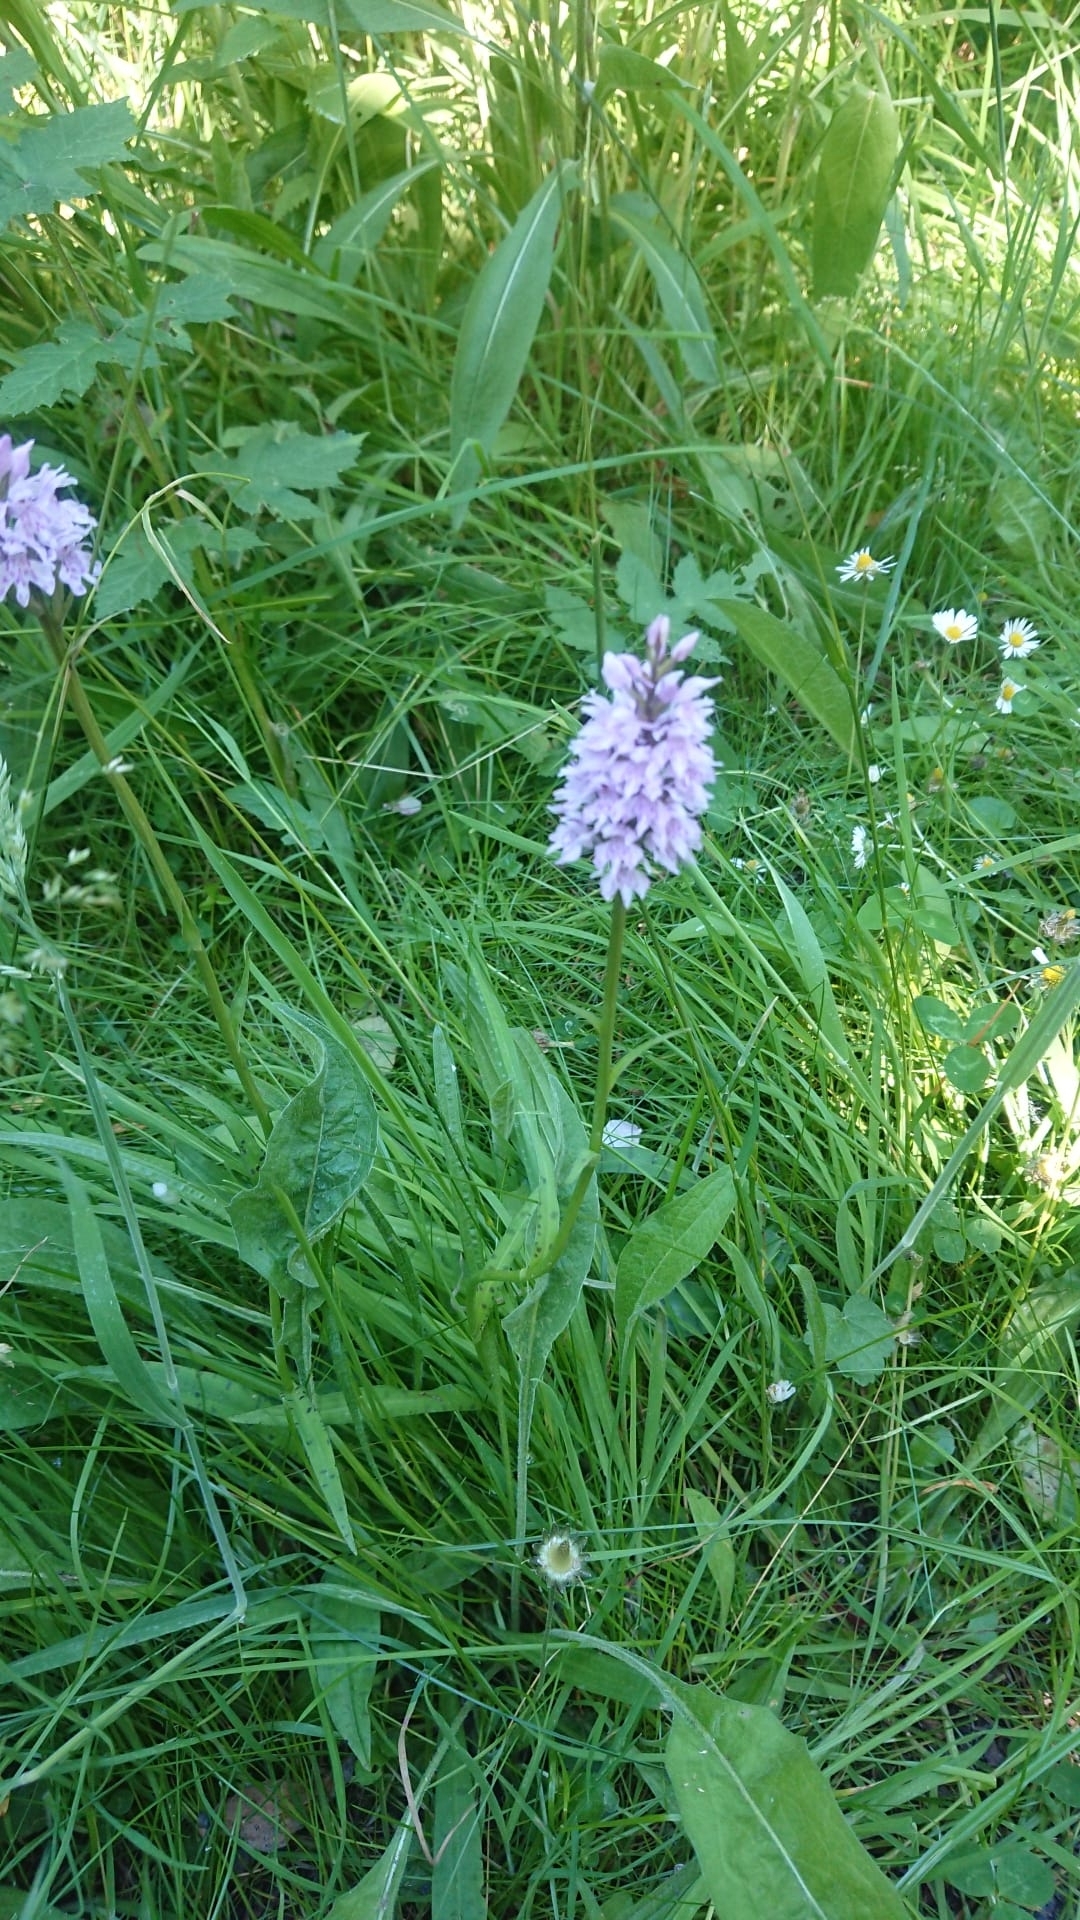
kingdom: Plantae
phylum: Tracheophyta
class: Liliopsida
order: Asparagales
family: Orchidaceae
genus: Dactylorhiza
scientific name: Dactylorhiza maculata
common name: Heath spotted-orchid
